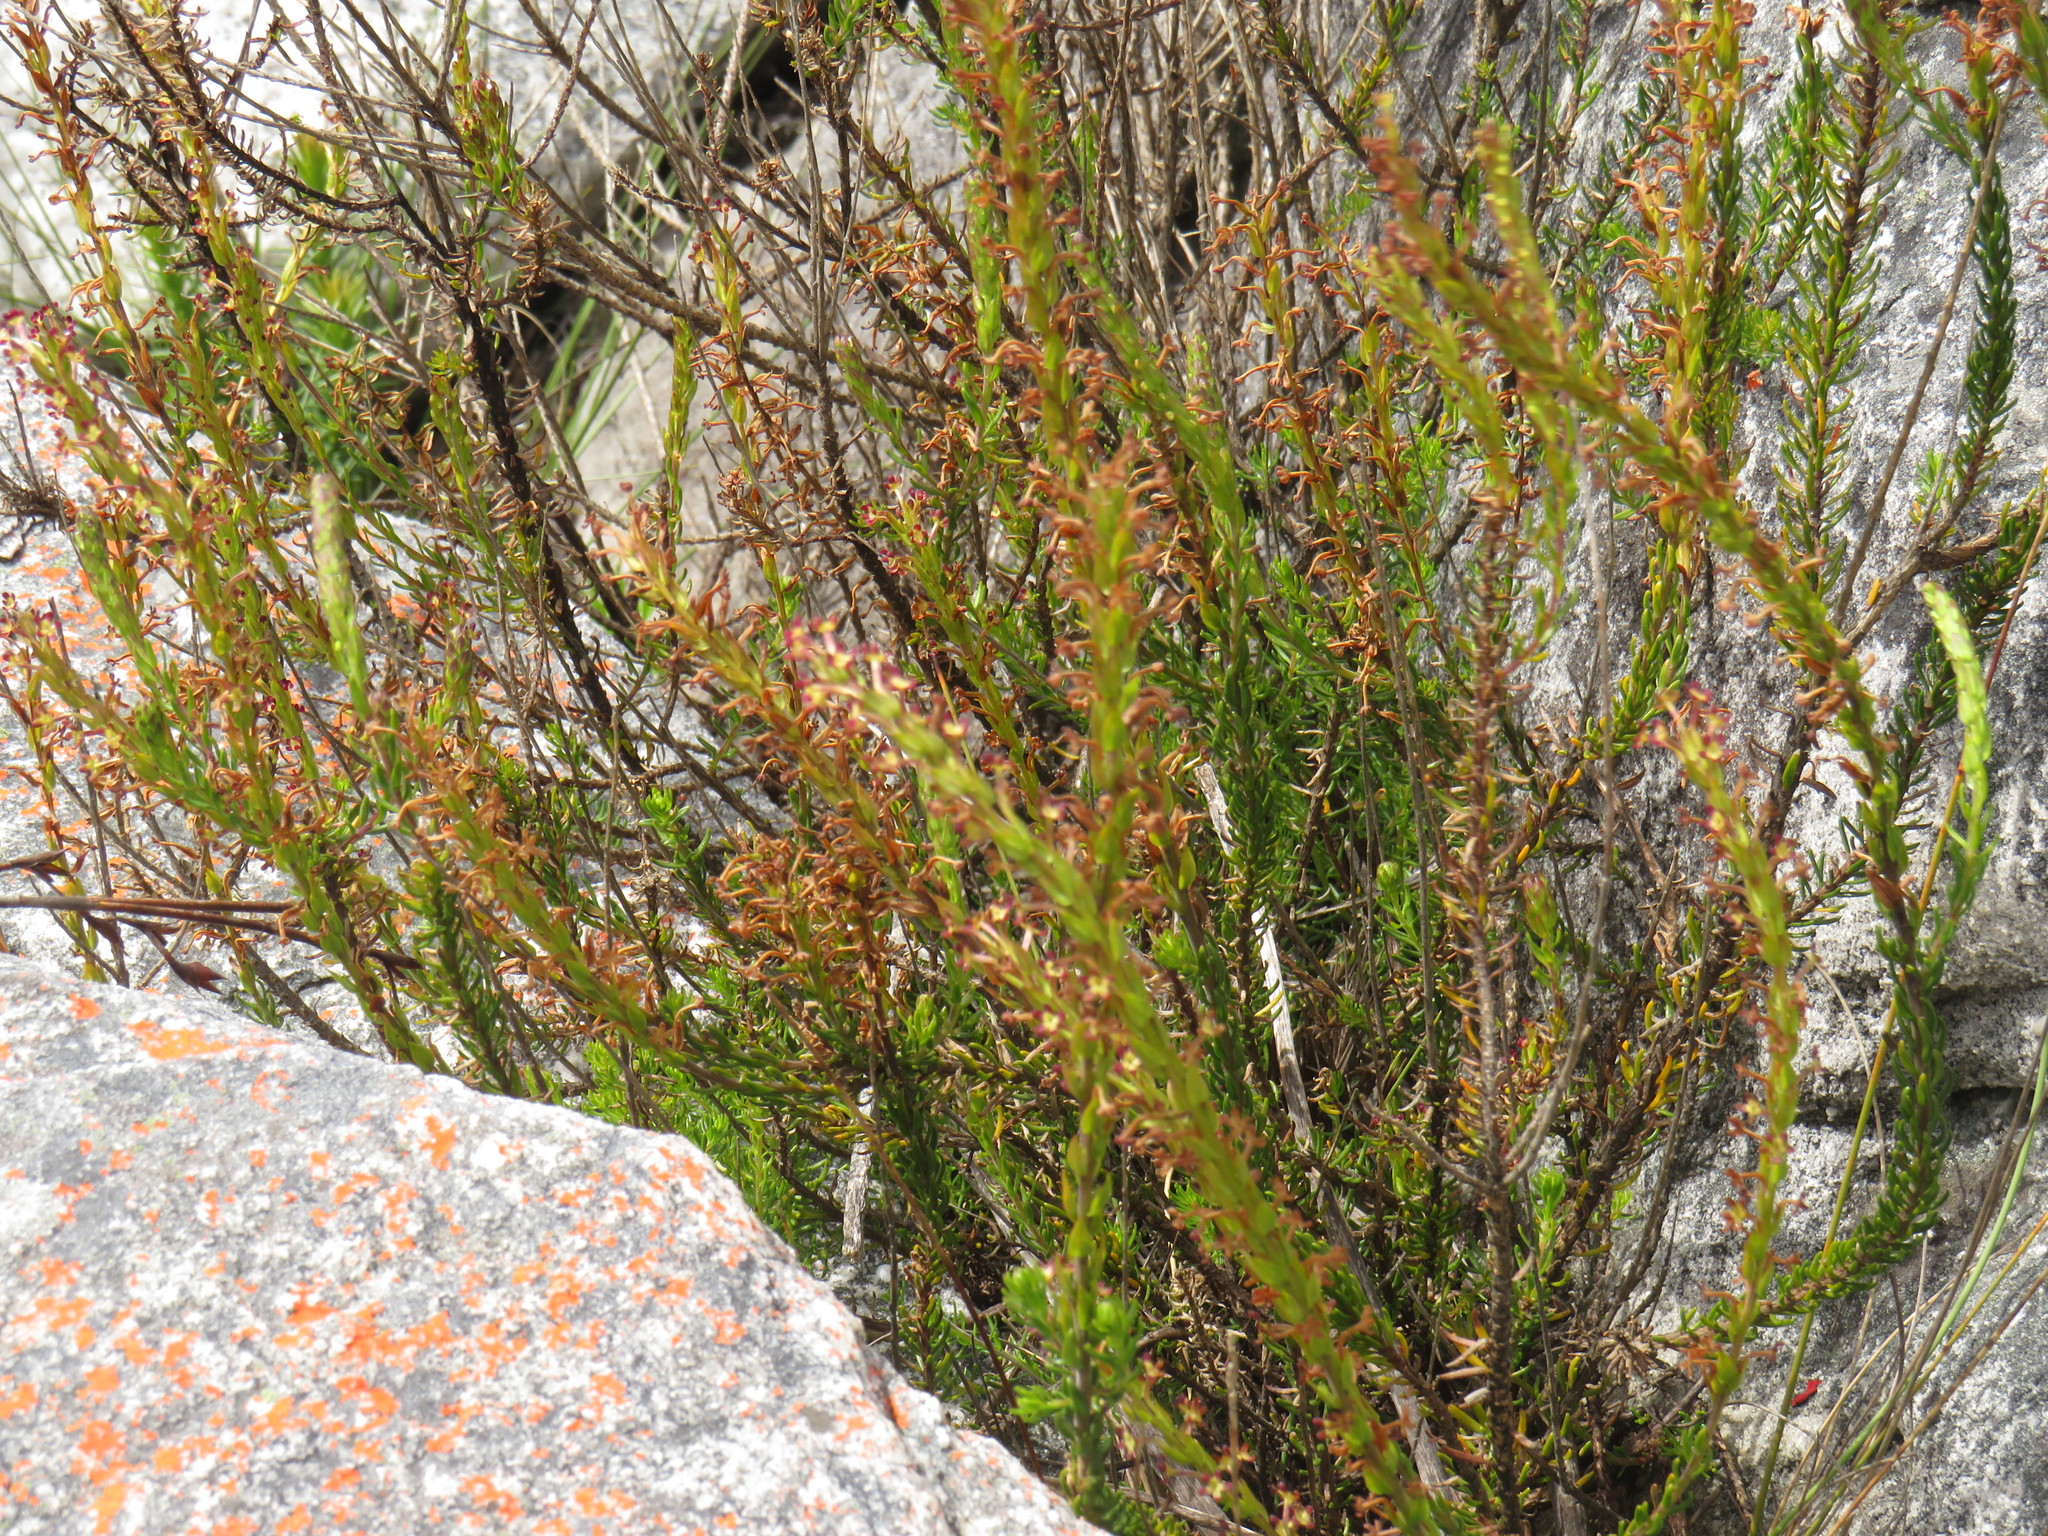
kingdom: Plantae
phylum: Tracheophyta
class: Magnoliopsida
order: Lamiales
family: Scrophulariaceae
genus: Microdon
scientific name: Microdon dubius
